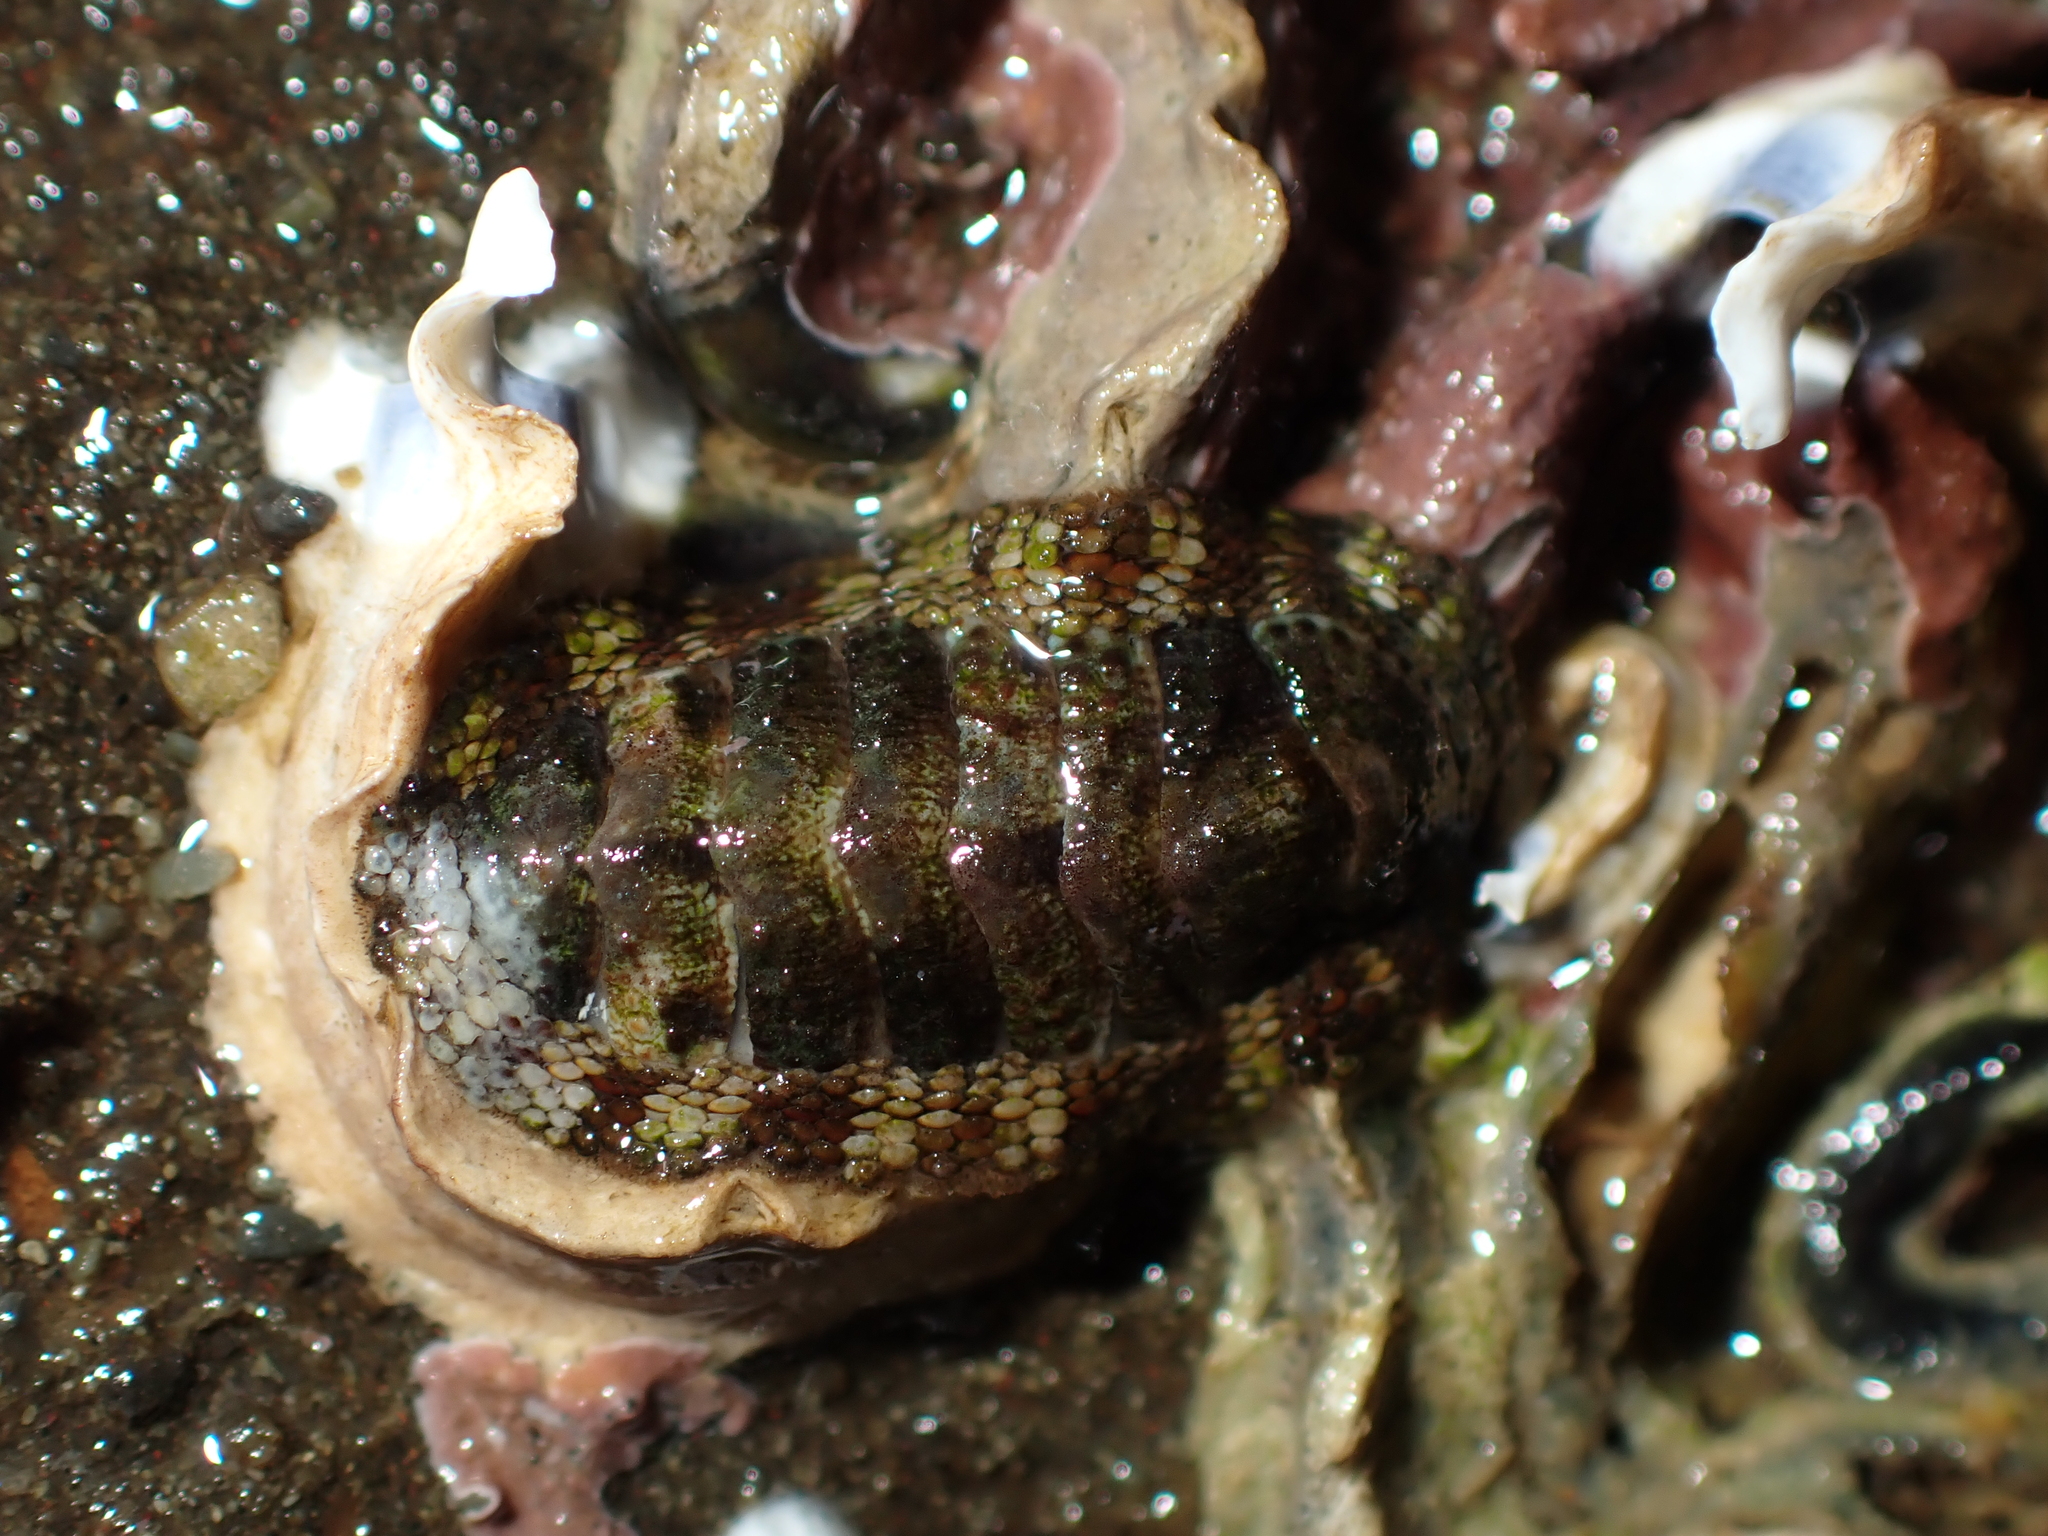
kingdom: Animalia
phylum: Mollusca
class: Polyplacophora
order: Chitonida
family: Chitonidae
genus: Sypharochiton
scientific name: Sypharochiton pelliserpentis
